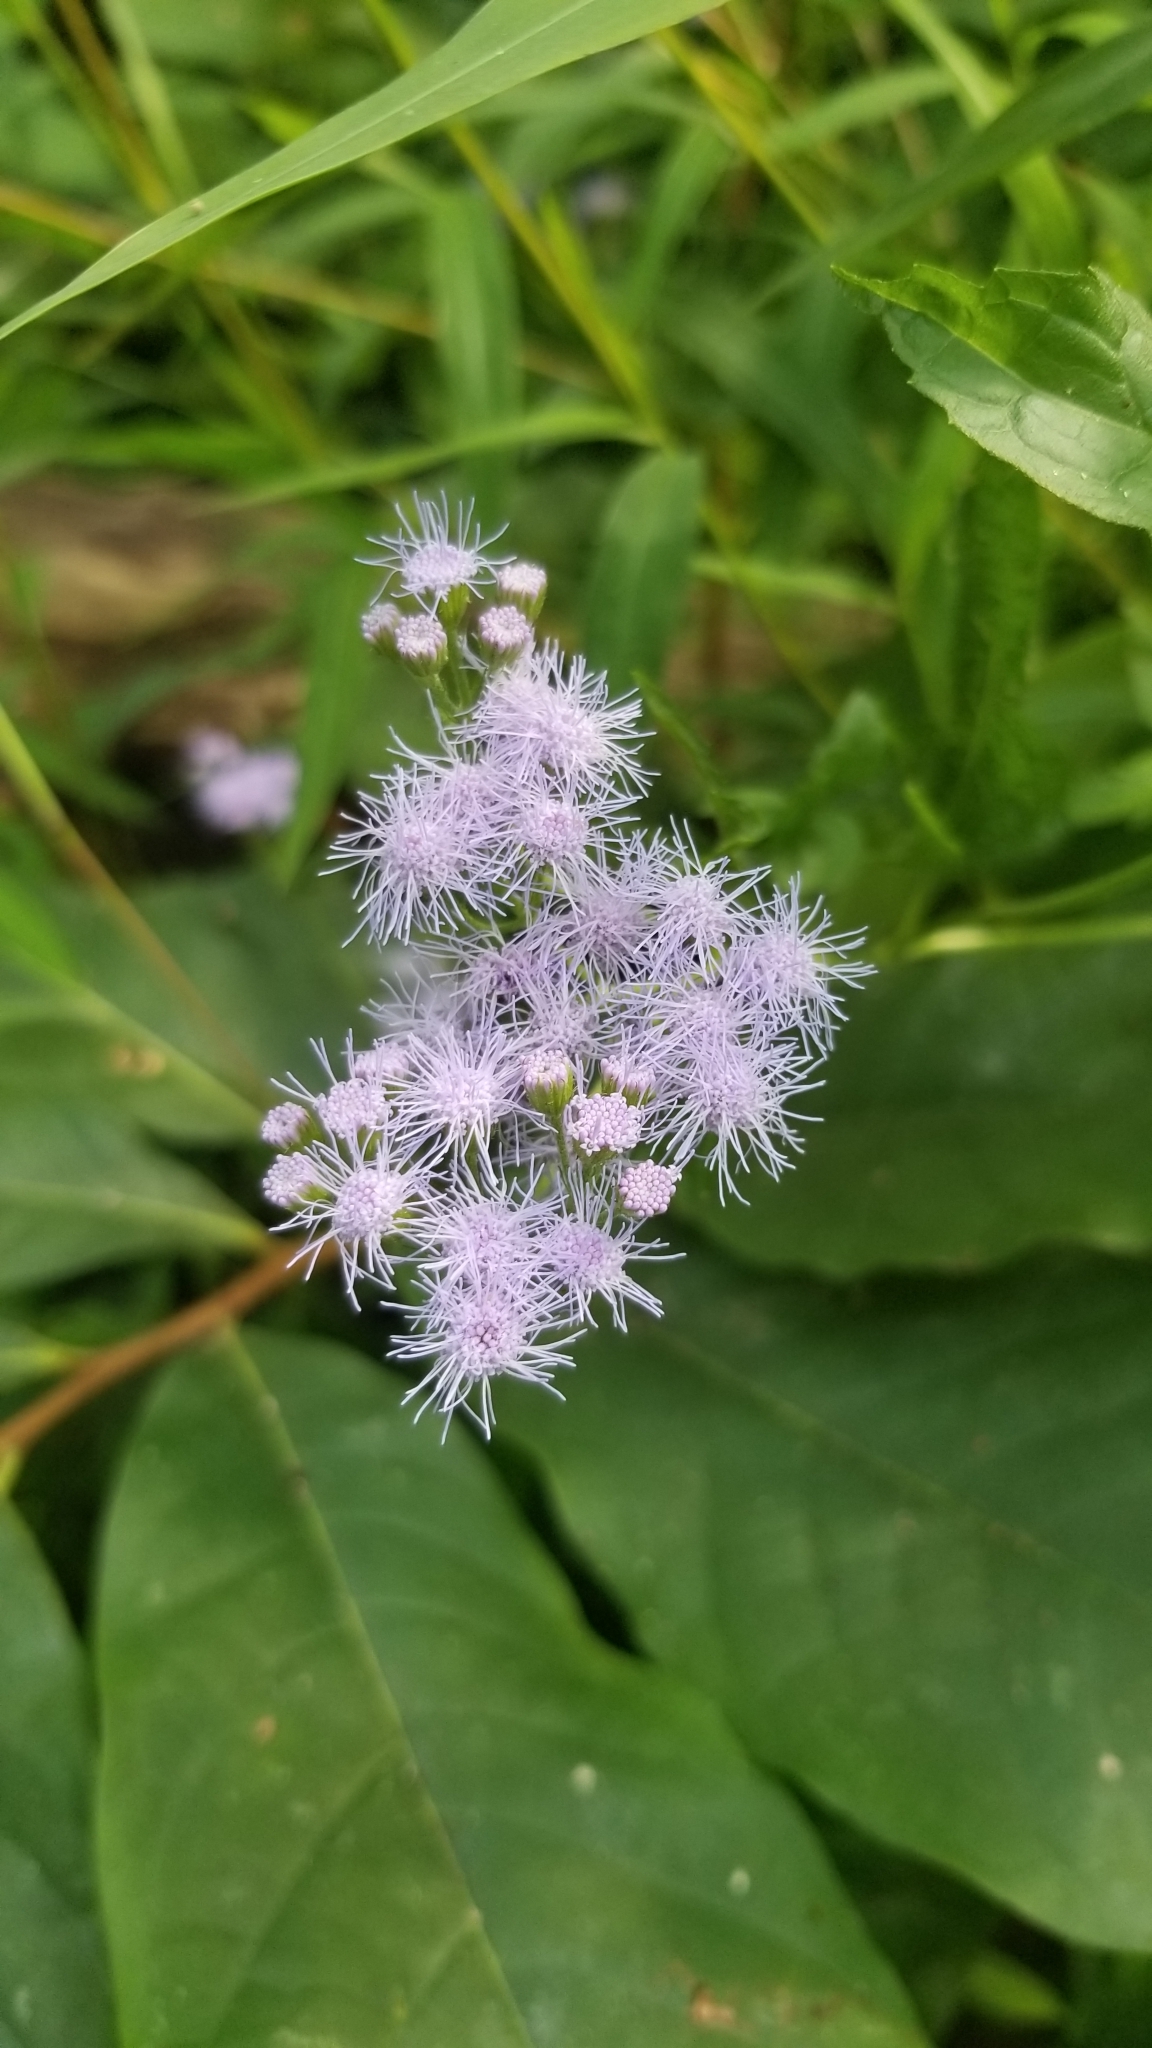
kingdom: Plantae
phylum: Tracheophyta
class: Magnoliopsida
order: Asterales
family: Asteraceae
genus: Conoclinium
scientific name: Conoclinium coelestinum
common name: Blue mistflower
